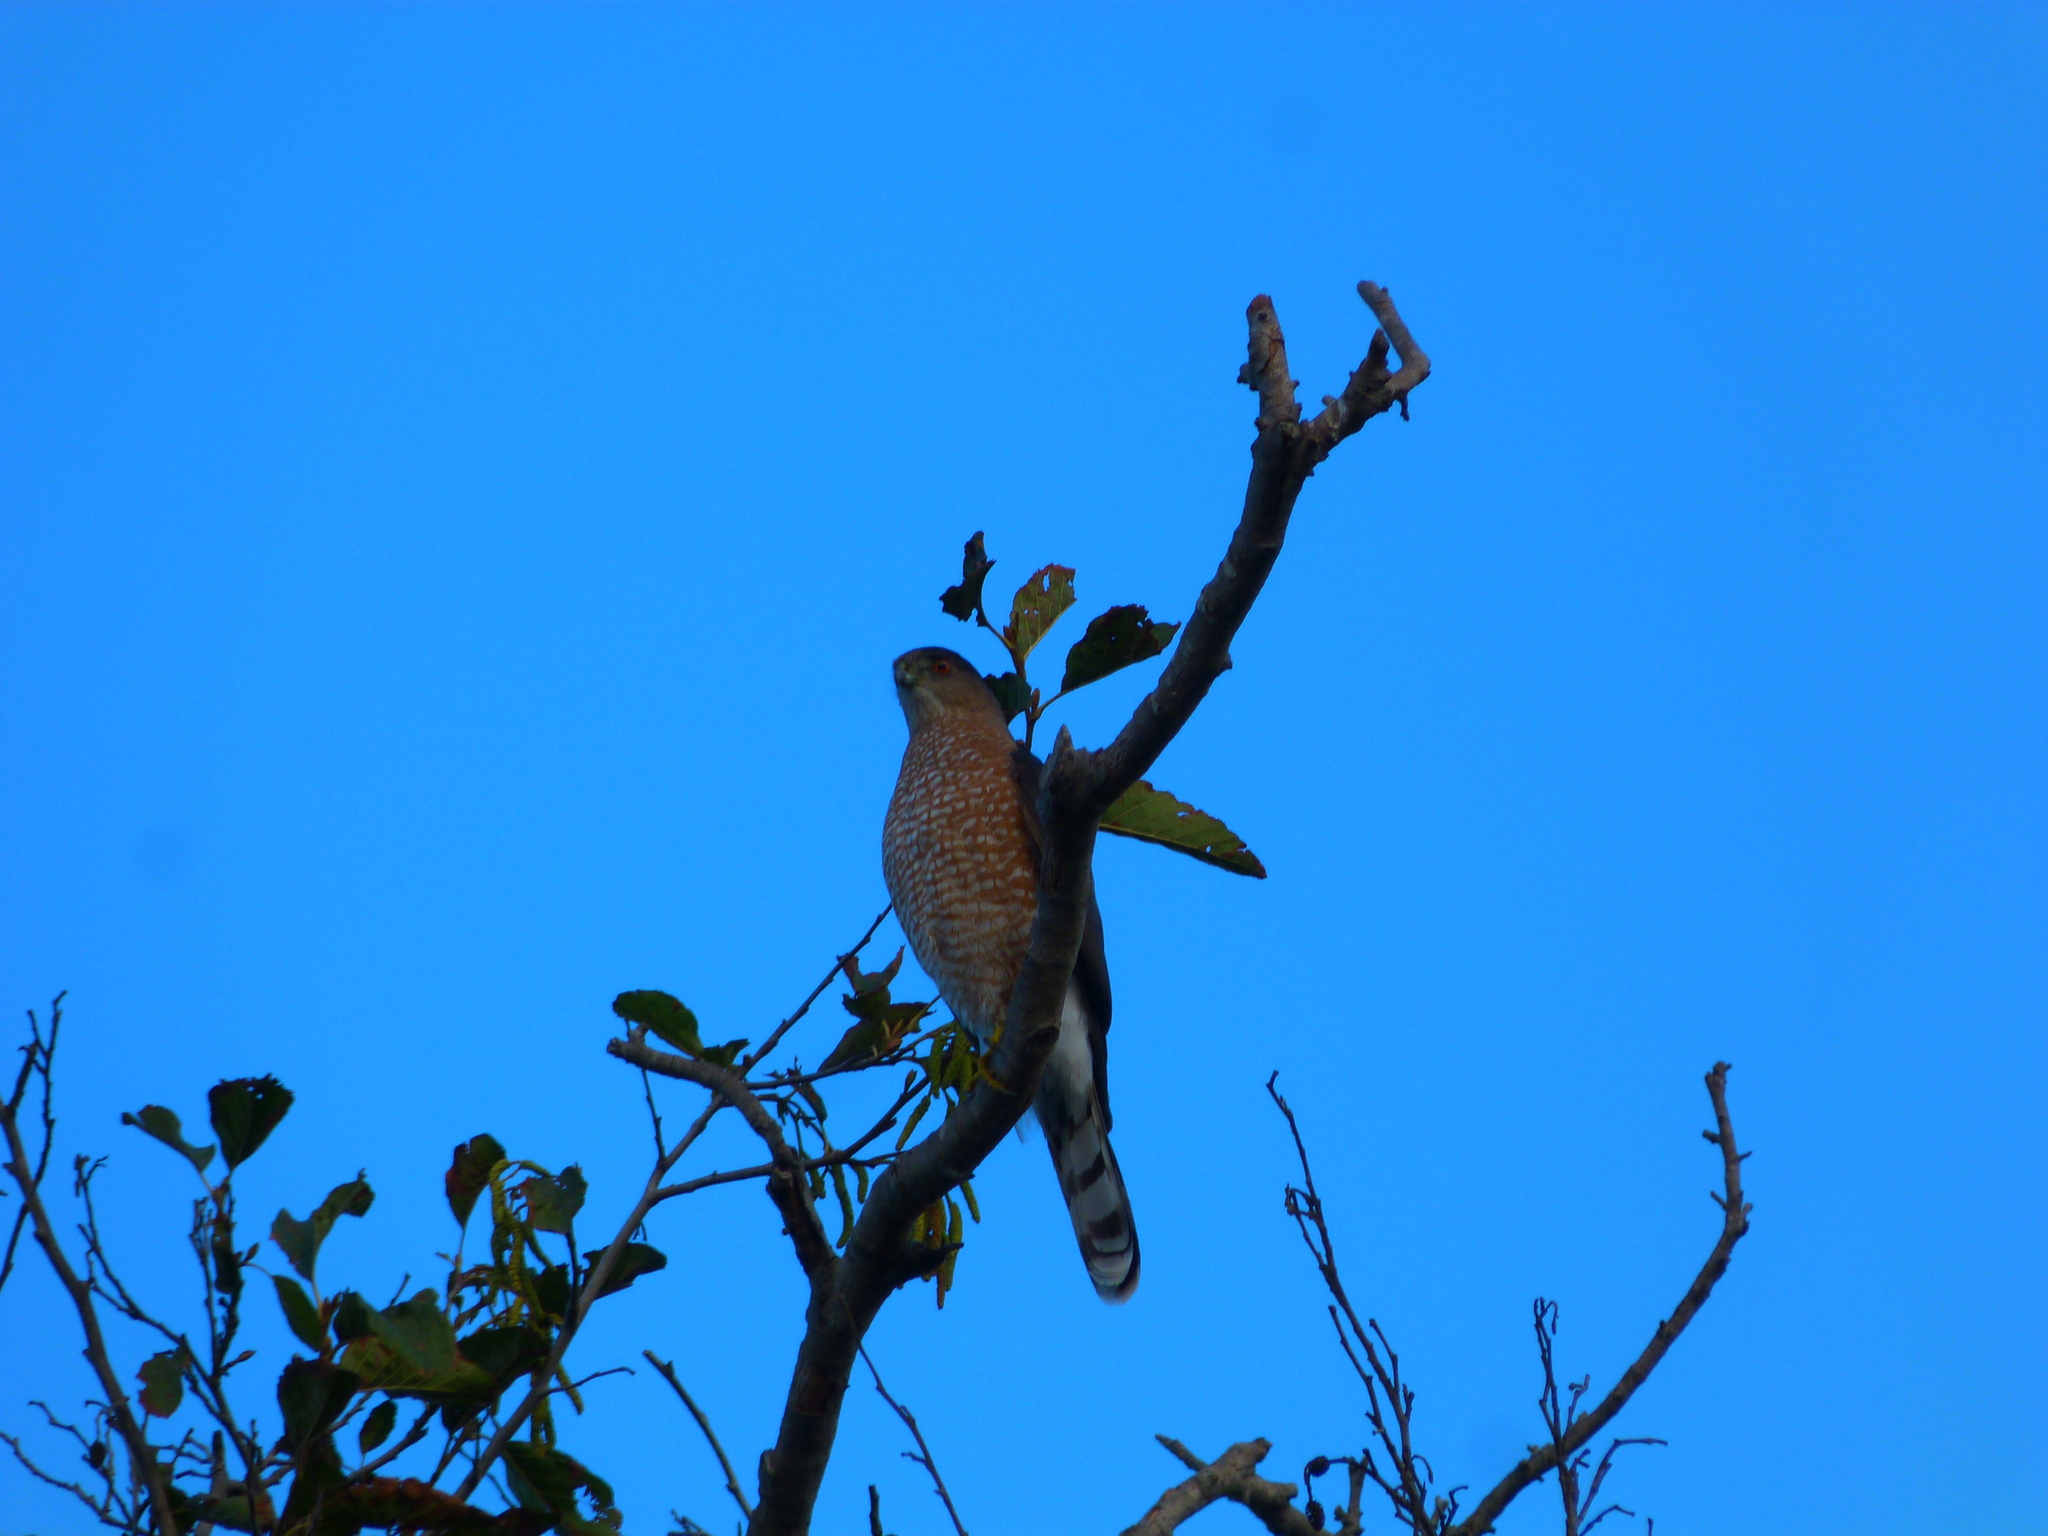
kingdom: Animalia
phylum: Chordata
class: Aves
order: Accipitriformes
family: Accipitridae
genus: Accipiter
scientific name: Accipiter cooperii
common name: Cooper's hawk
